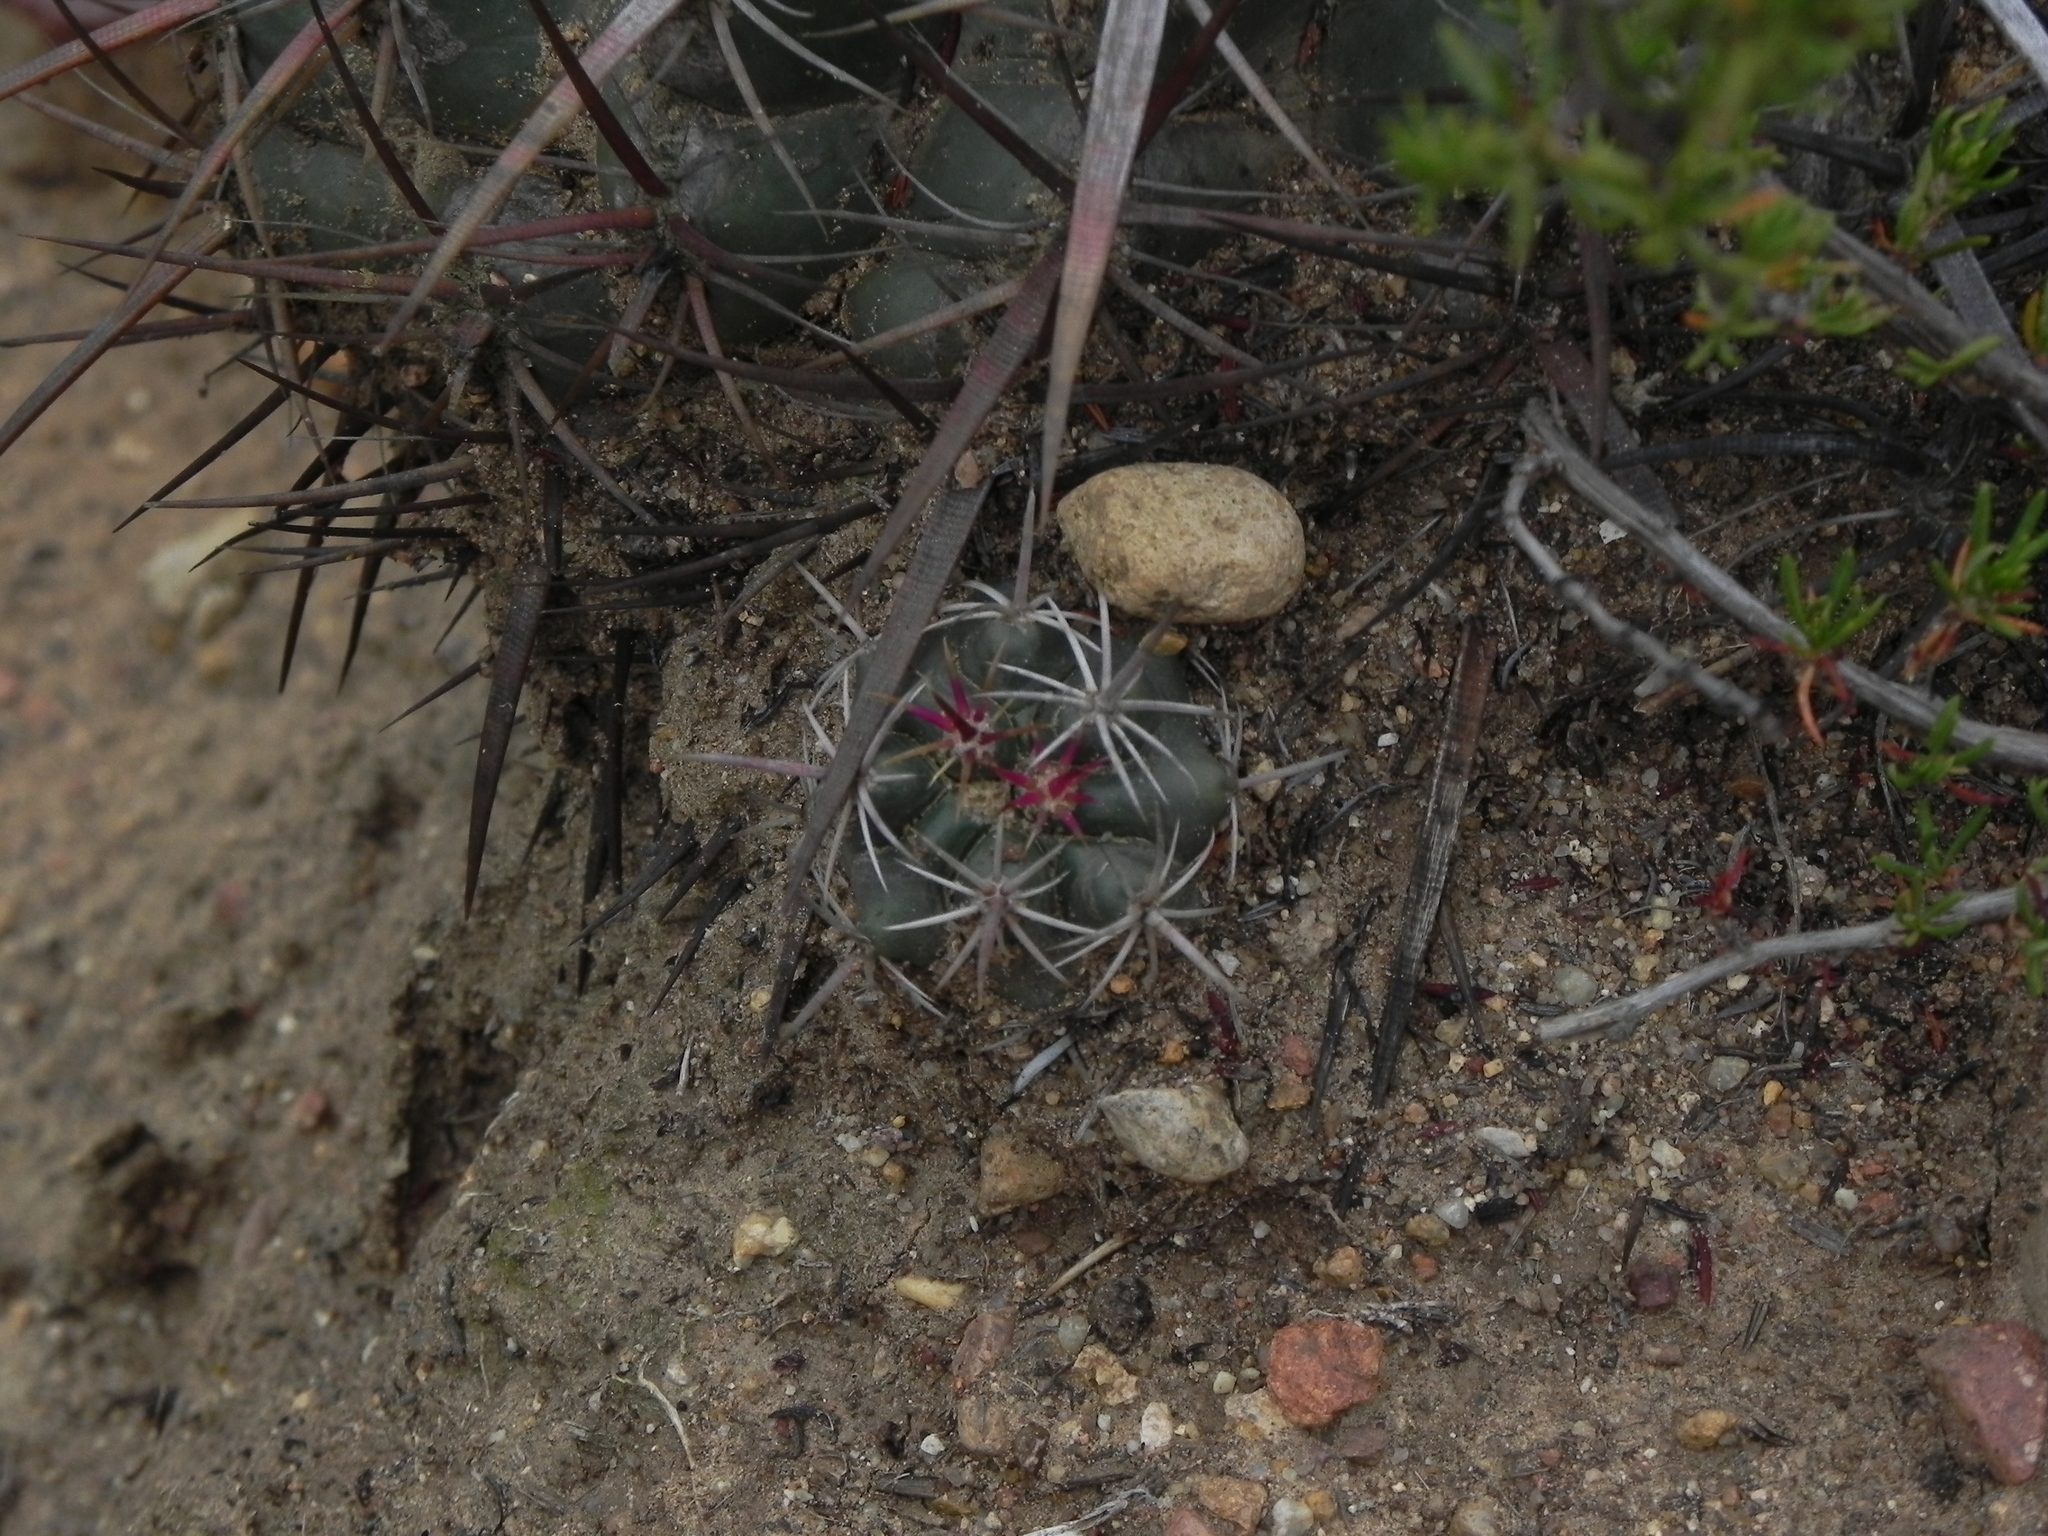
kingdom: Plantae
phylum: Tracheophyta
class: Magnoliopsida
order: Caryophyllales
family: Cactaceae
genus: Ferocactus
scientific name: Ferocactus viridescens
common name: San diego barrel cactus
